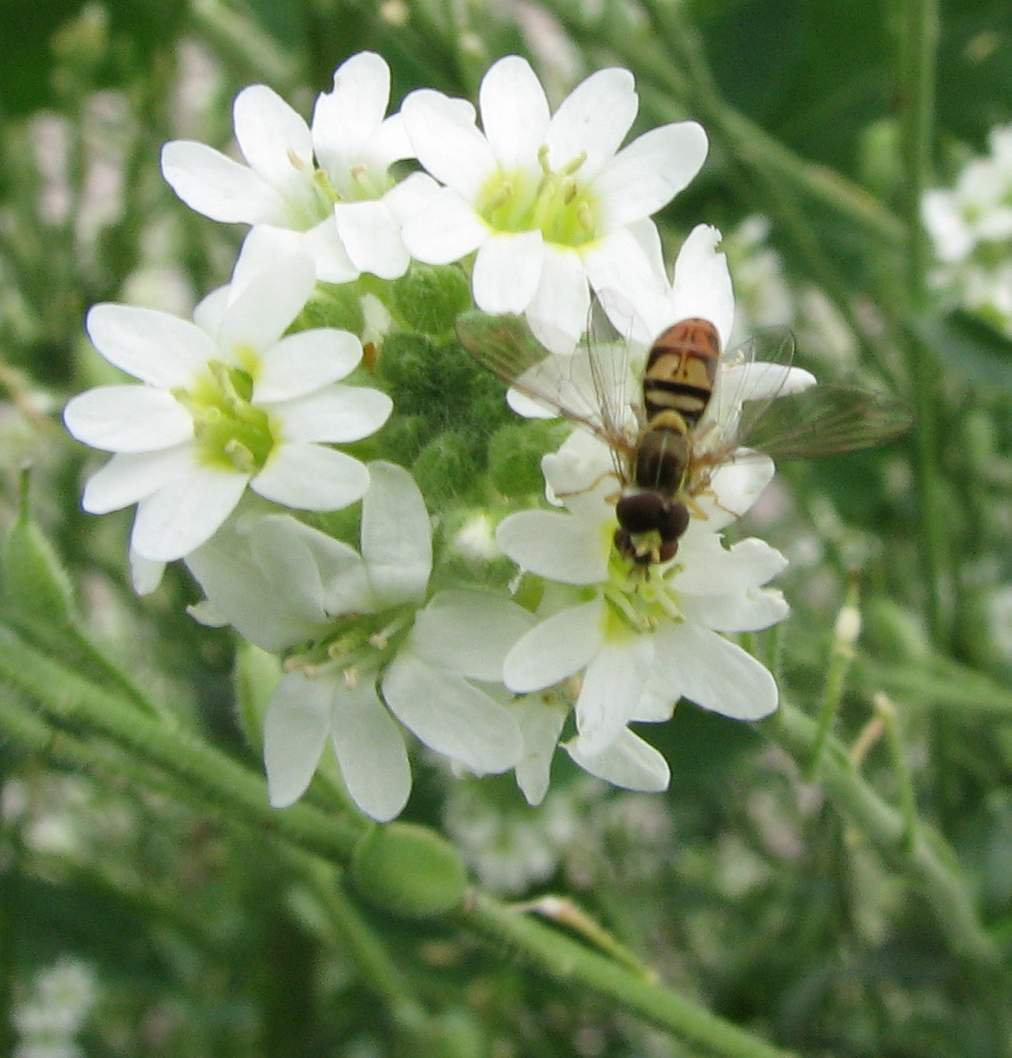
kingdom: Animalia
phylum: Arthropoda
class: Insecta
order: Diptera
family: Syrphidae
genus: Toxomerus
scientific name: Toxomerus marginatus
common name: Syrphid fly
